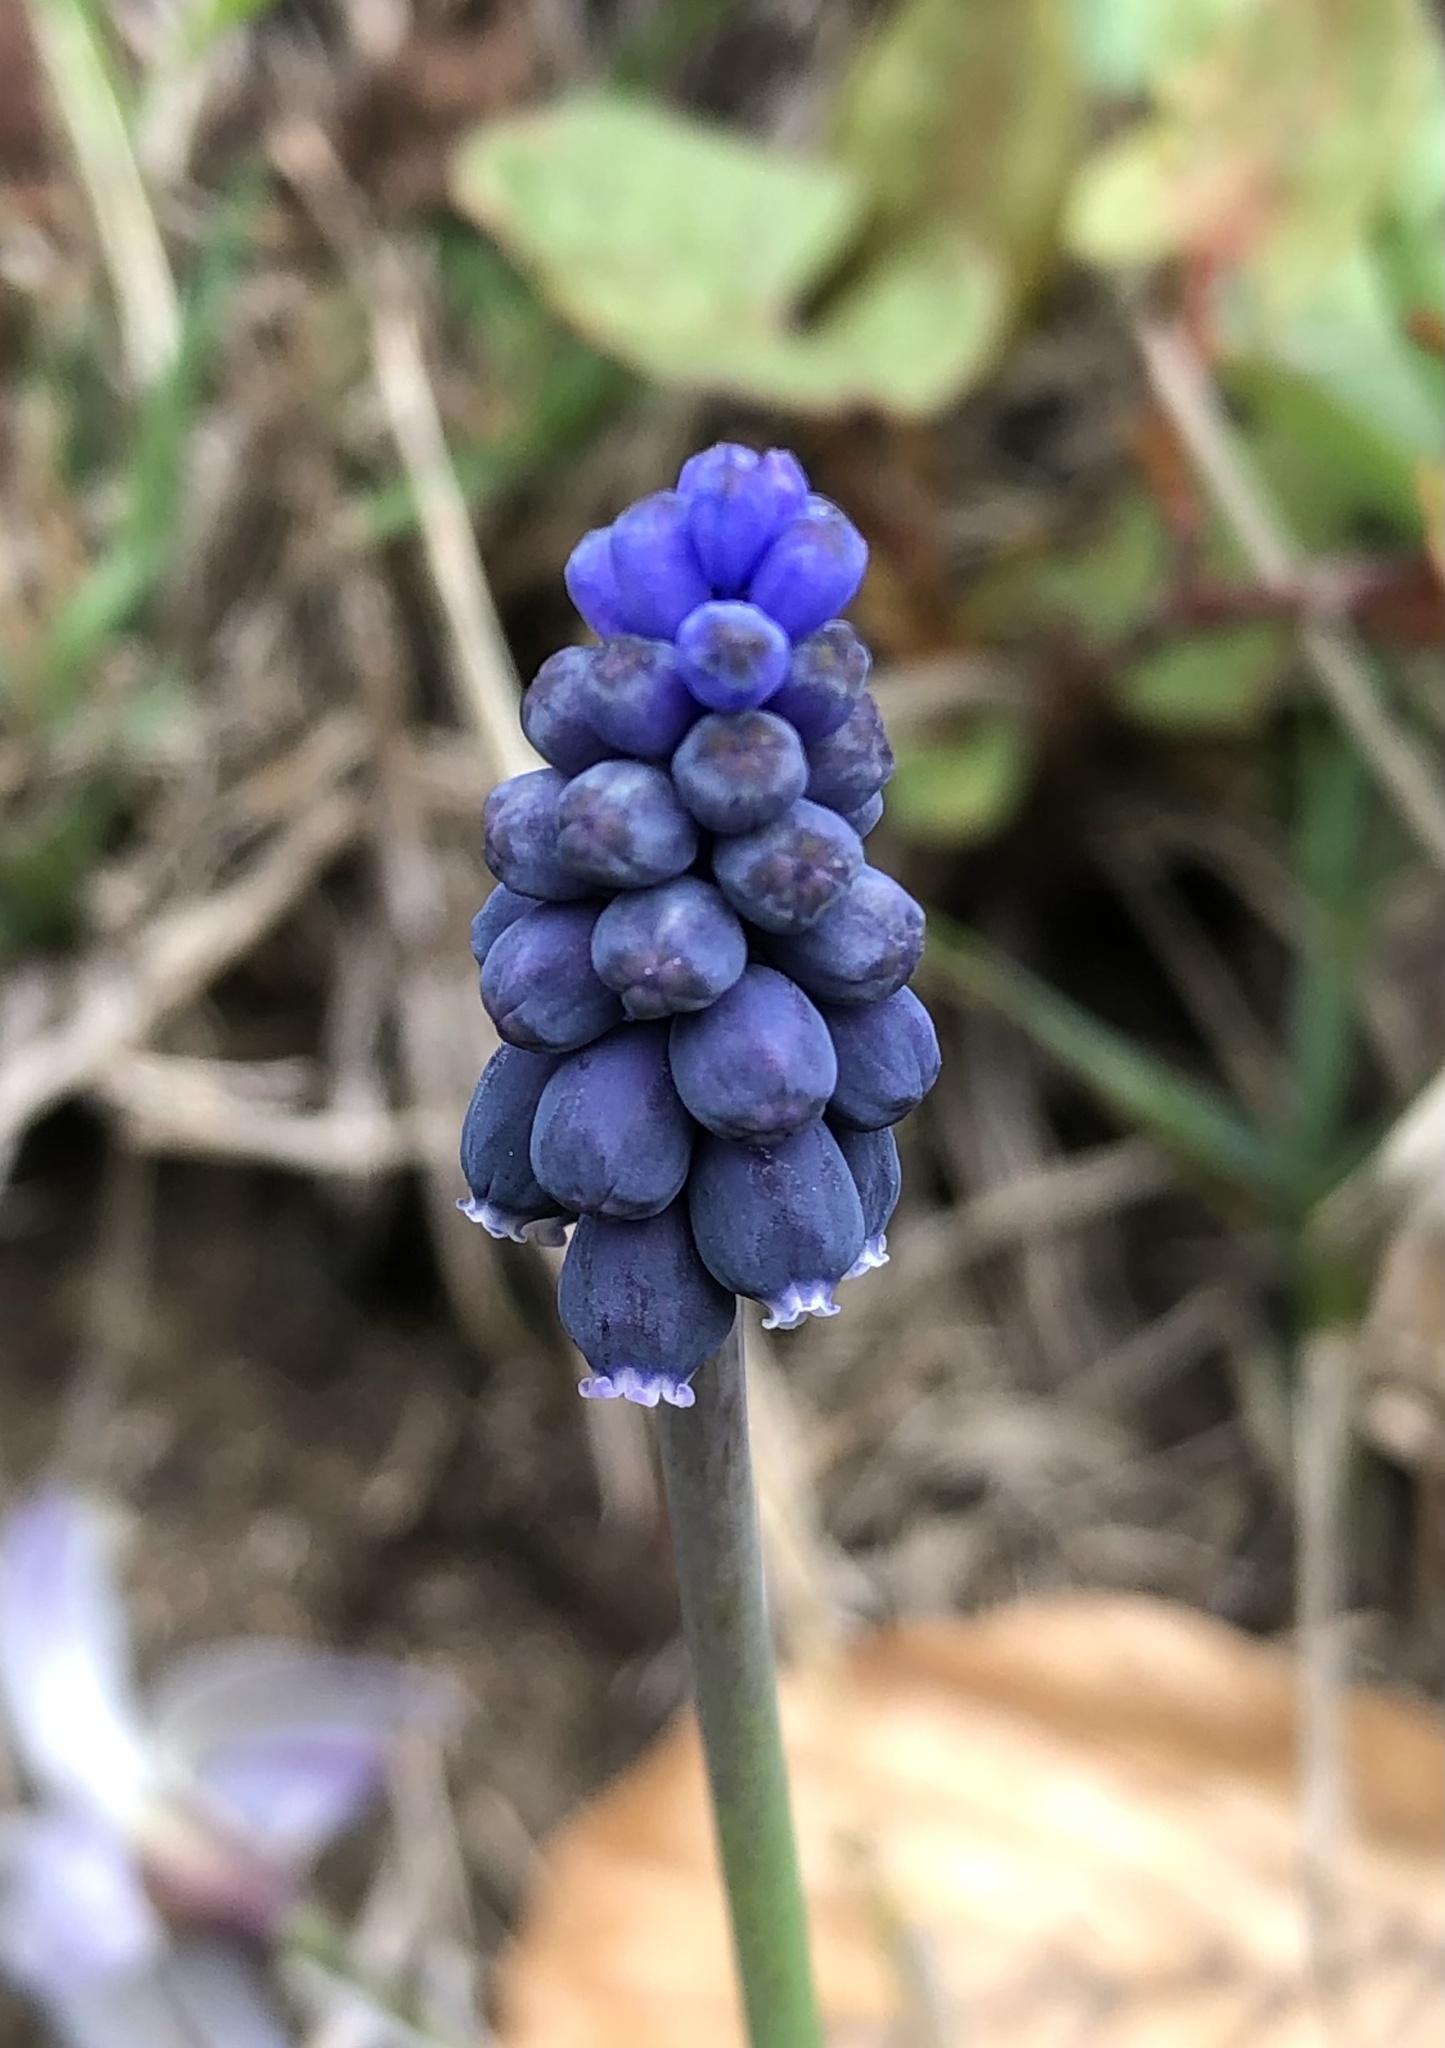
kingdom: Plantae
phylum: Tracheophyta
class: Liliopsida
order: Asparagales
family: Asparagaceae
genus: Muscari
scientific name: Muscari neglectum
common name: Grape-hyacinth
